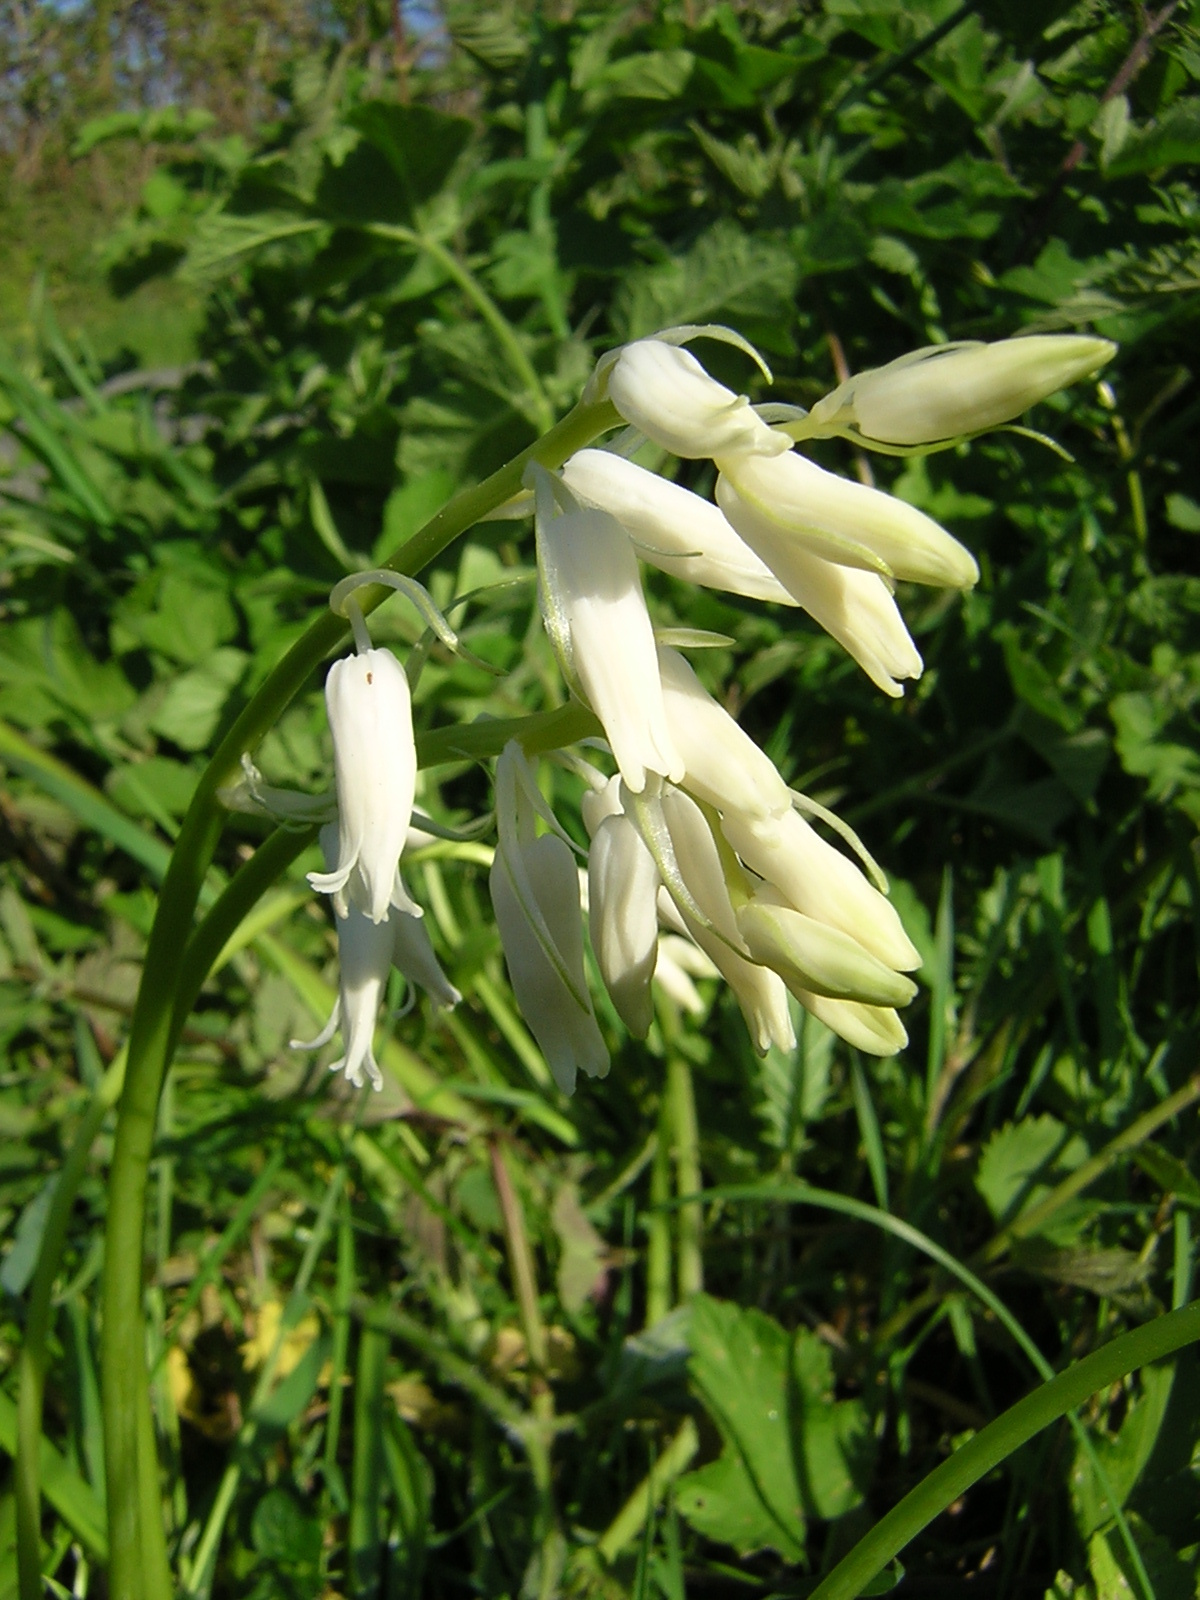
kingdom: Plantae
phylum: Tracheophyta
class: Liliopsida
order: Asparagales
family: Asparagaceae
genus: Hyacinthoides
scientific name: Hyacinthoides non-scripta
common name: Bluebell
